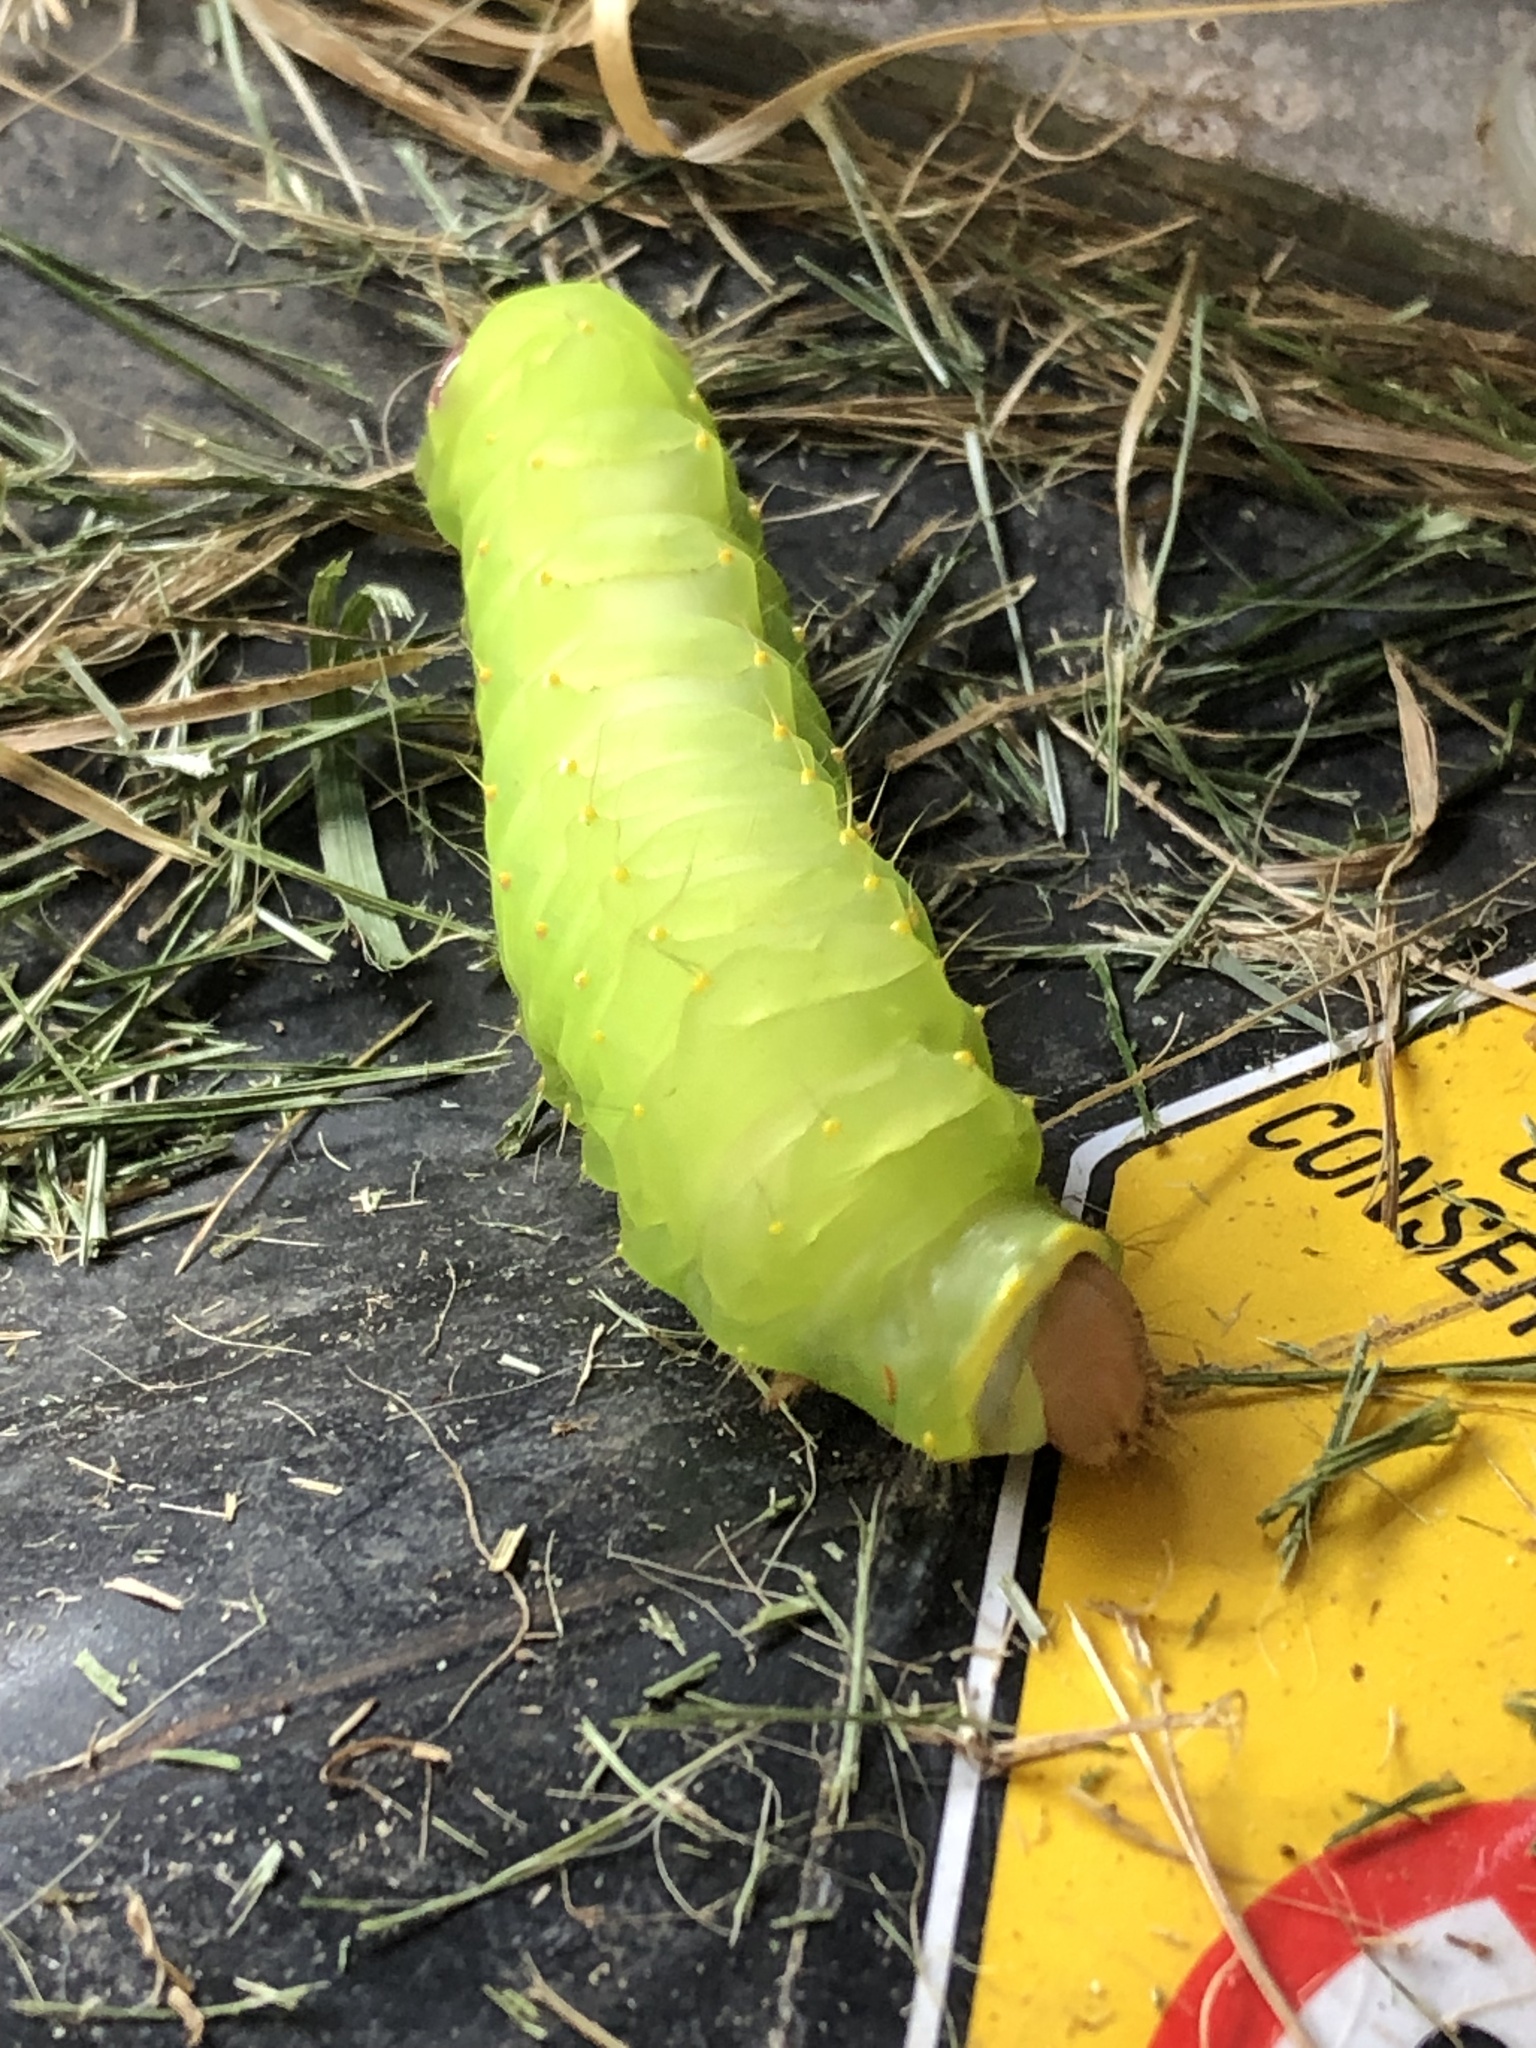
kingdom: Animalia
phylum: Arthropoda
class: Insecta
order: Lepidoptera
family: Saturniidae
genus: Antheraea
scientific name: Antheraea polyphemus
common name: Polyphemus moth
